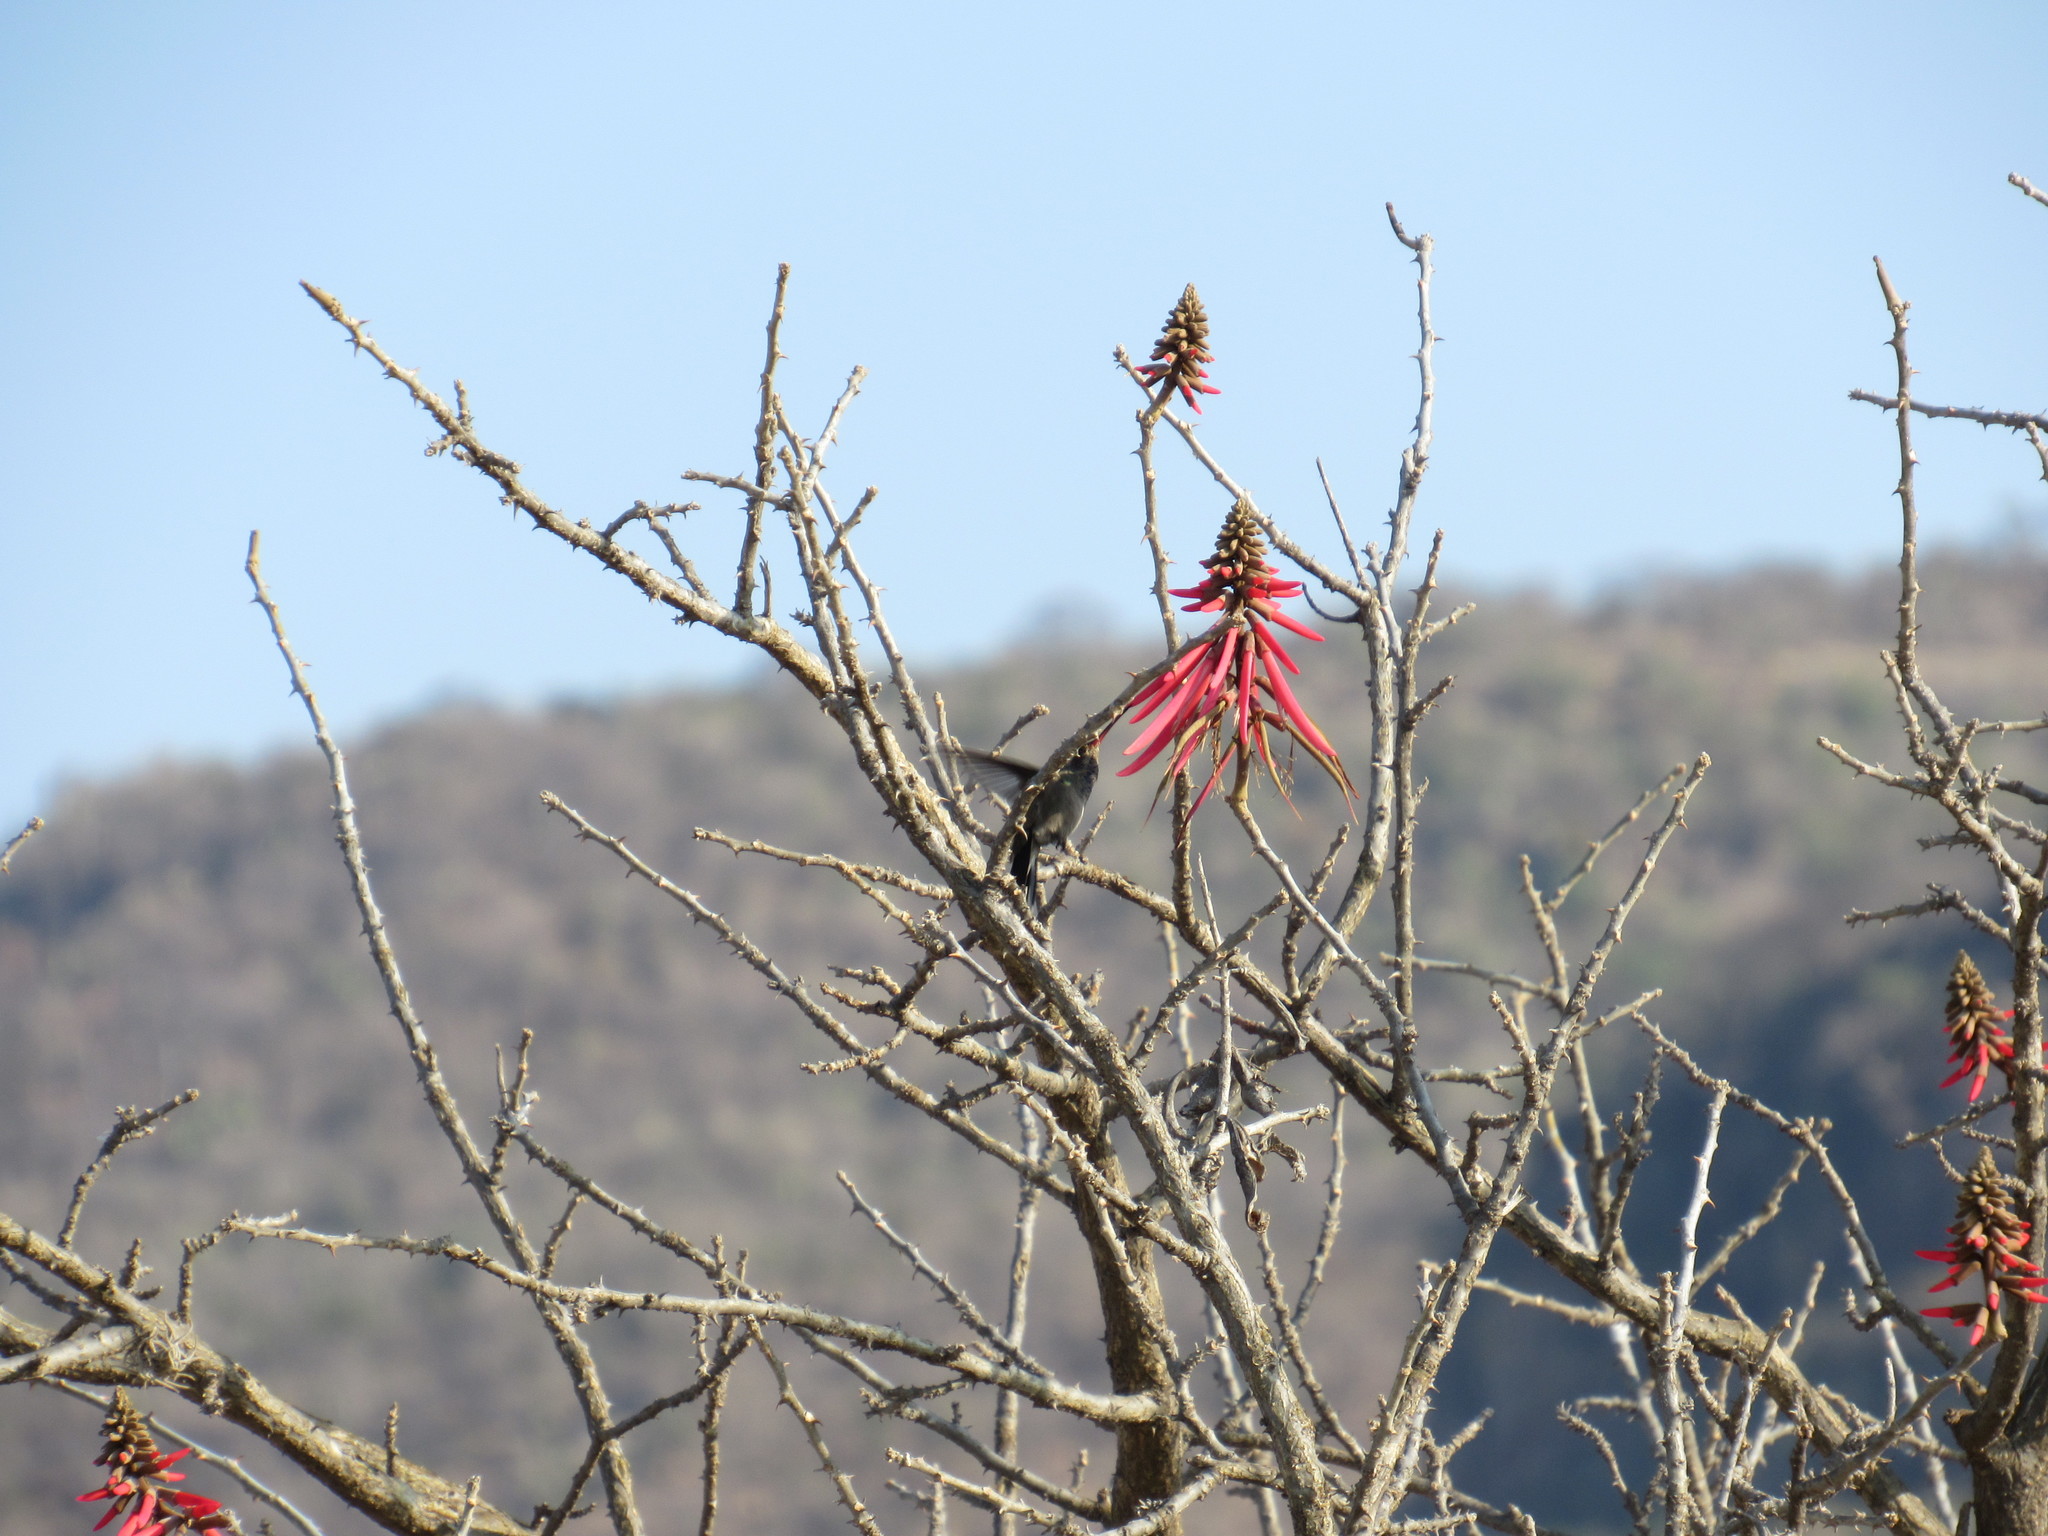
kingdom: Animalia
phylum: Chordata
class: Aves
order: Apodiformes
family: Trochilidae
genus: Cynanthus
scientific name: Cynanthus latirostris
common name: Broad-billed hummingbird
